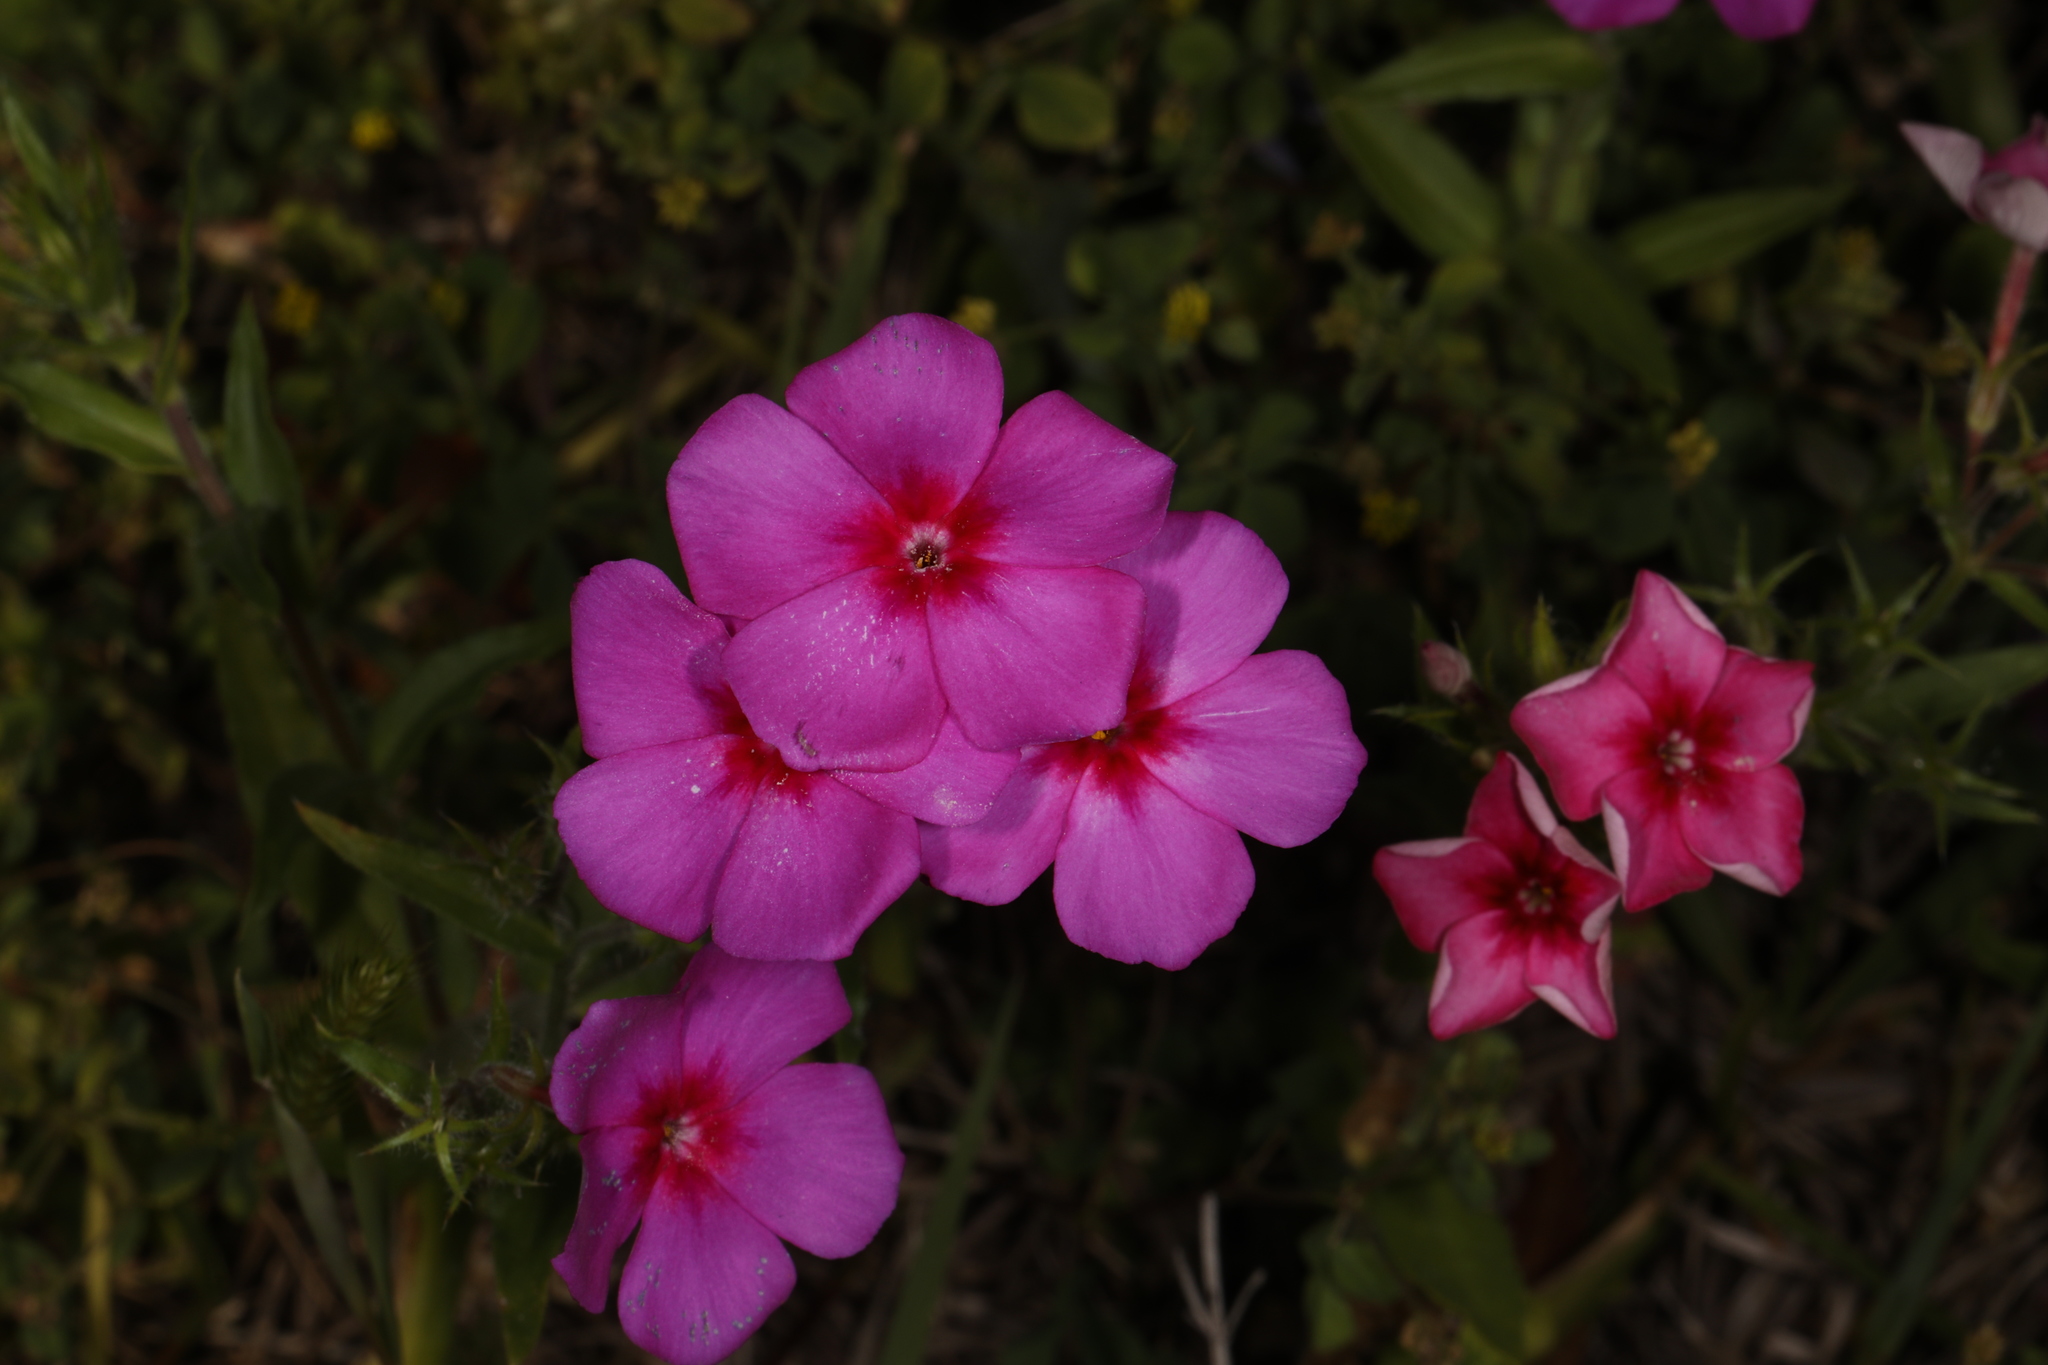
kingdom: Plantae
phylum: Tracheophyta
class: Magnoliopsida
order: Ericales
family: Polemoniaceae
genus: Phlox
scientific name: Phlox drummondii
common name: Drummond's phlox
